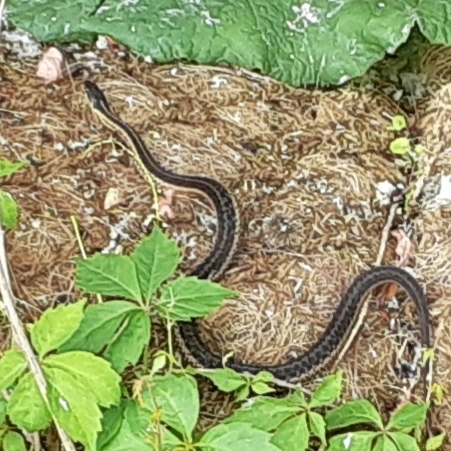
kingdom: Animalia
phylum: Chordata
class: Squamata
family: Colubridae
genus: Thamnophis
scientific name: Thamnophis sirtalis
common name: Common garter snake
